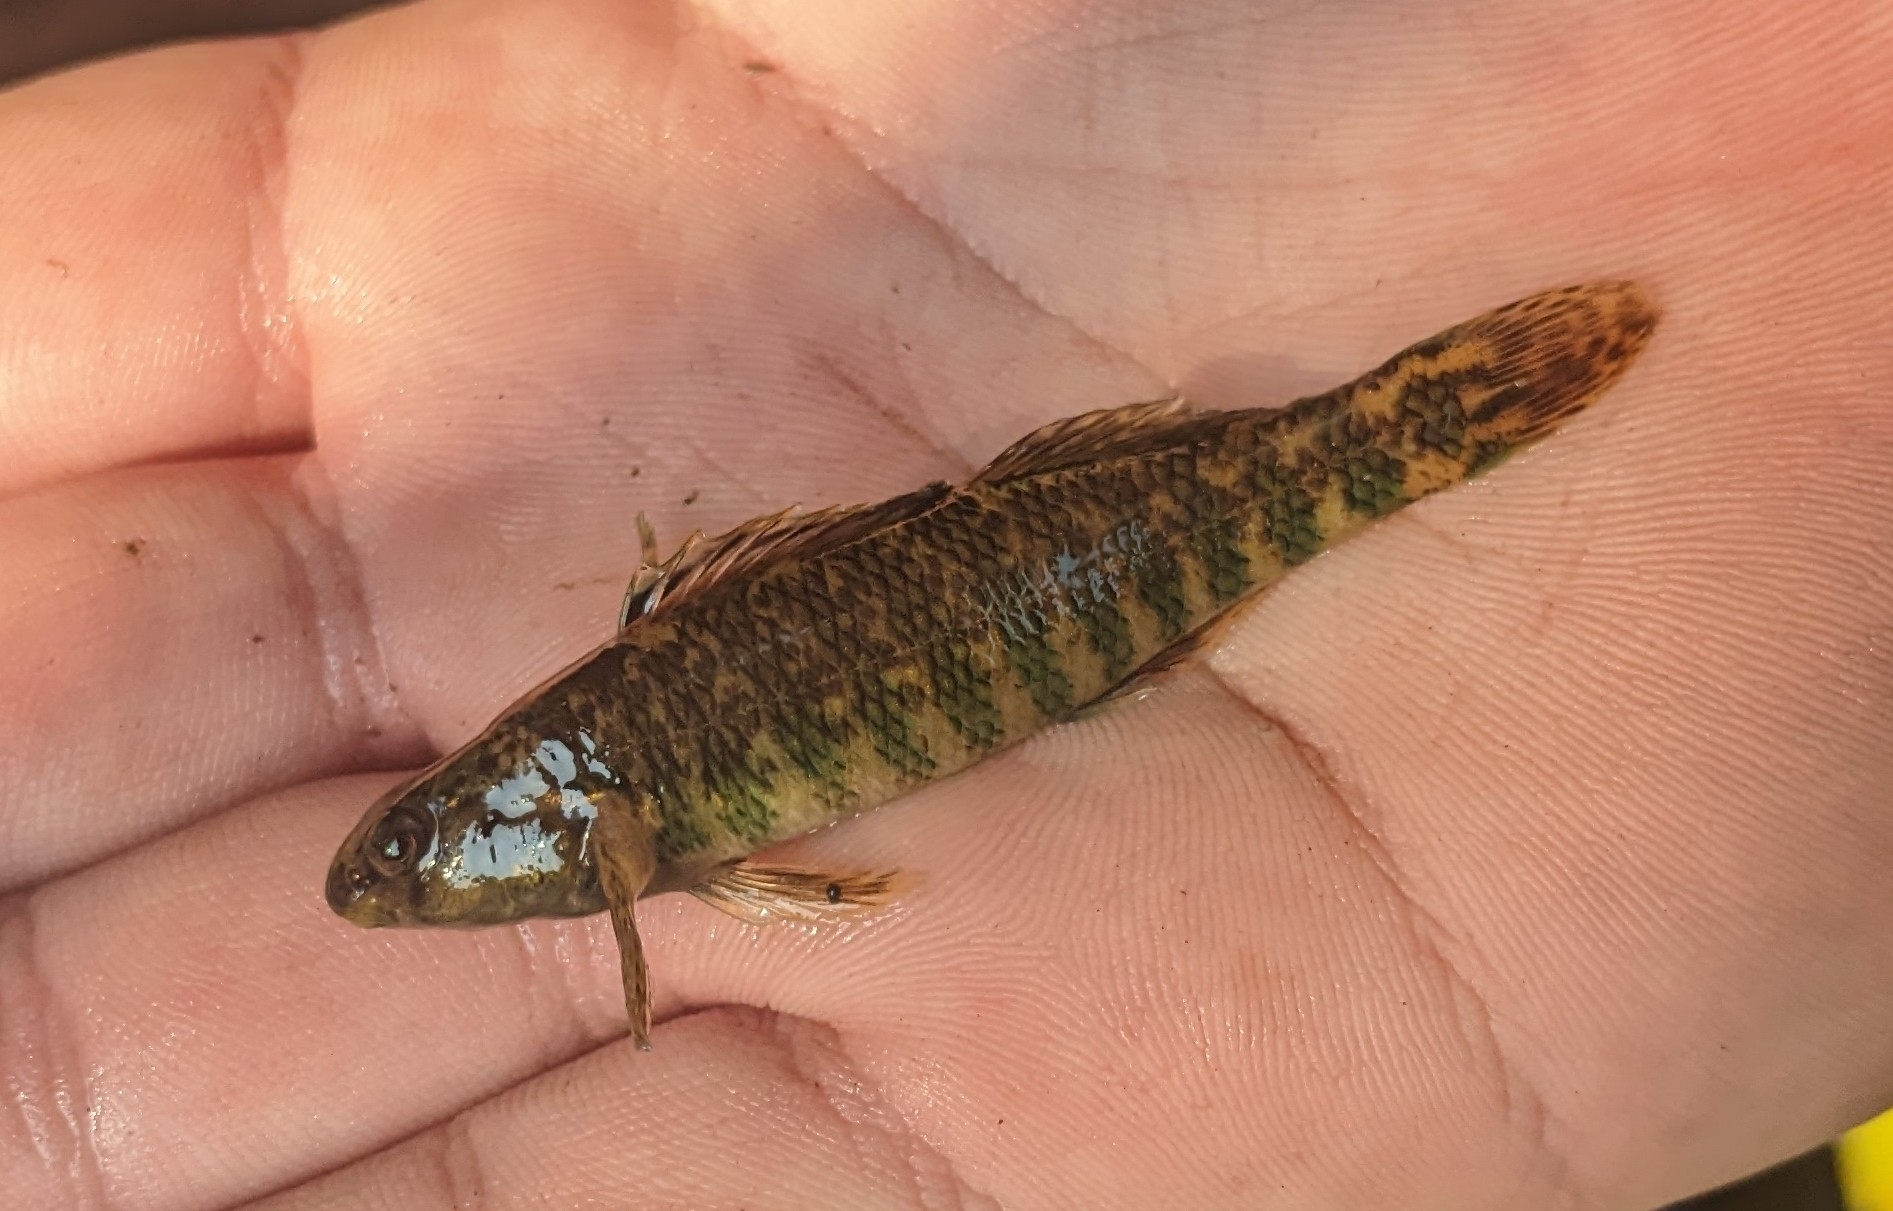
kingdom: Animalia
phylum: Chordata
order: Perciformes
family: Percidae
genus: Etheostoma
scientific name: Etheostoma zonale
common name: Banded darter
